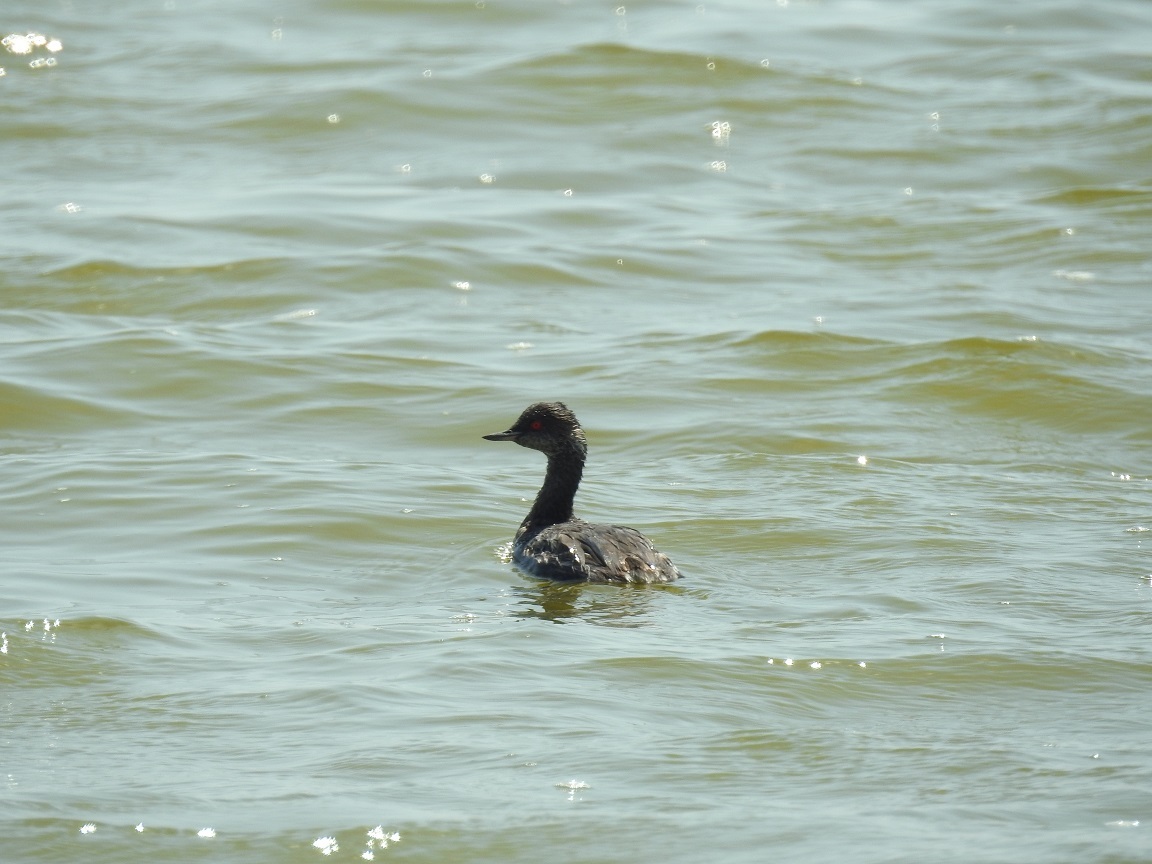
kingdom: Animalia
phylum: Chordata
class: Aves
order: Podicipediformes
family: Podicipedidae
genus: Podiceps
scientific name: Podiceps nigricollis
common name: Black-necked grebe
